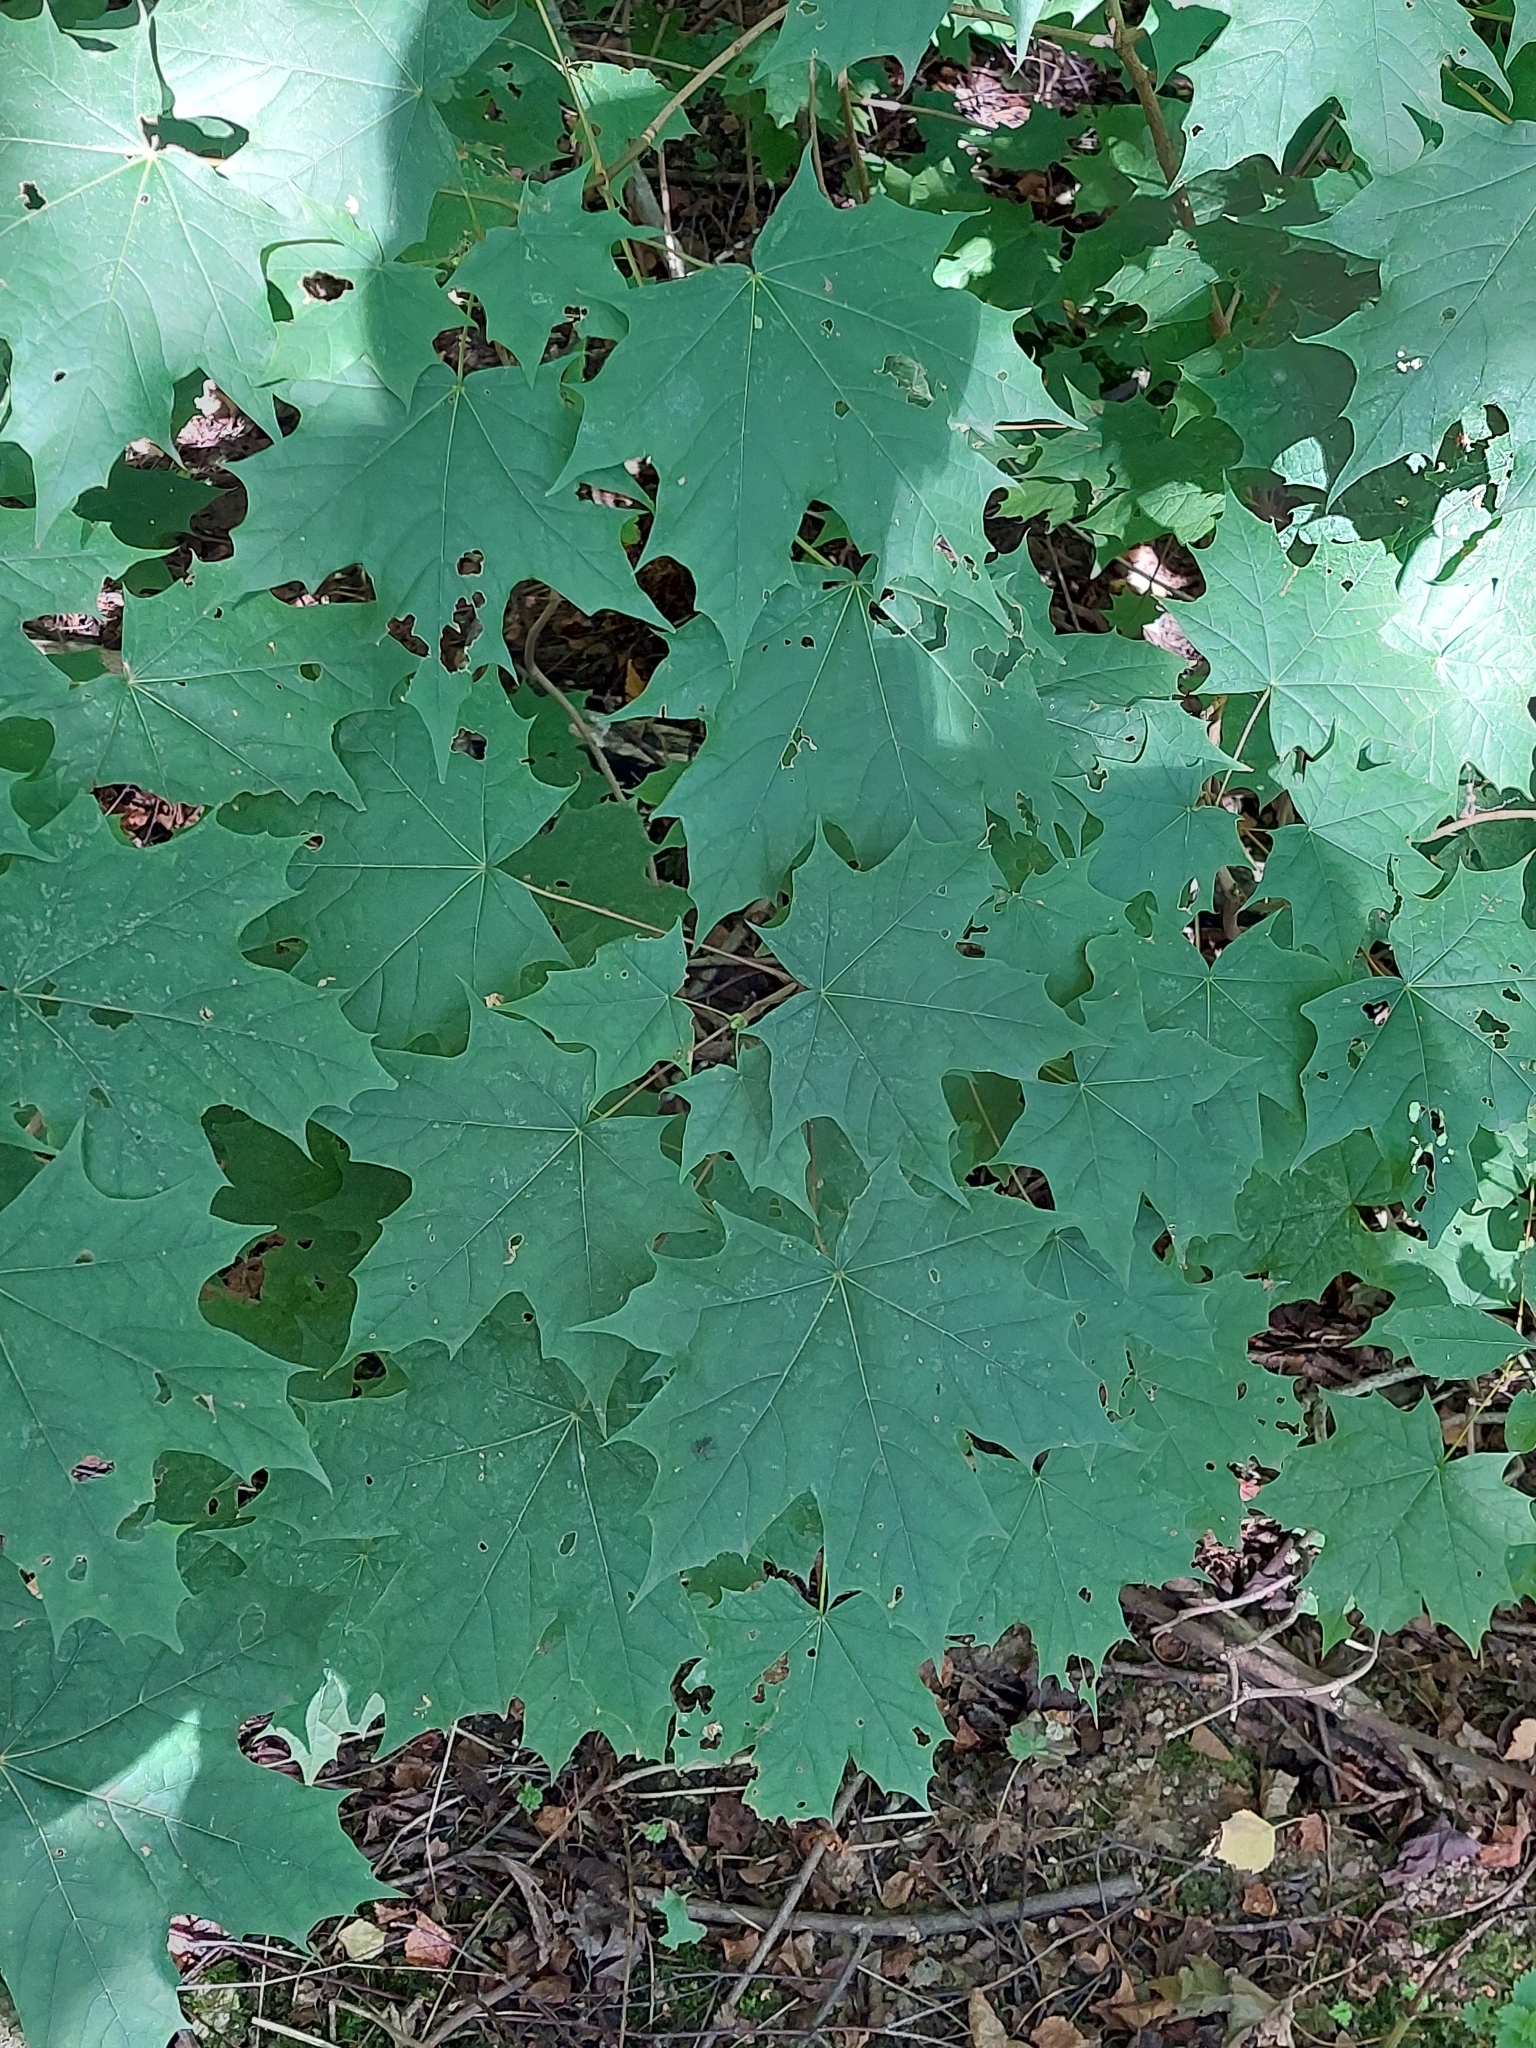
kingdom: Plantae
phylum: Tracheophyta
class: Magnoliopsida
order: Sapindales
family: Sapindaceae
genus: Acer
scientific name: Acer platanoides
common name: Norway maple
